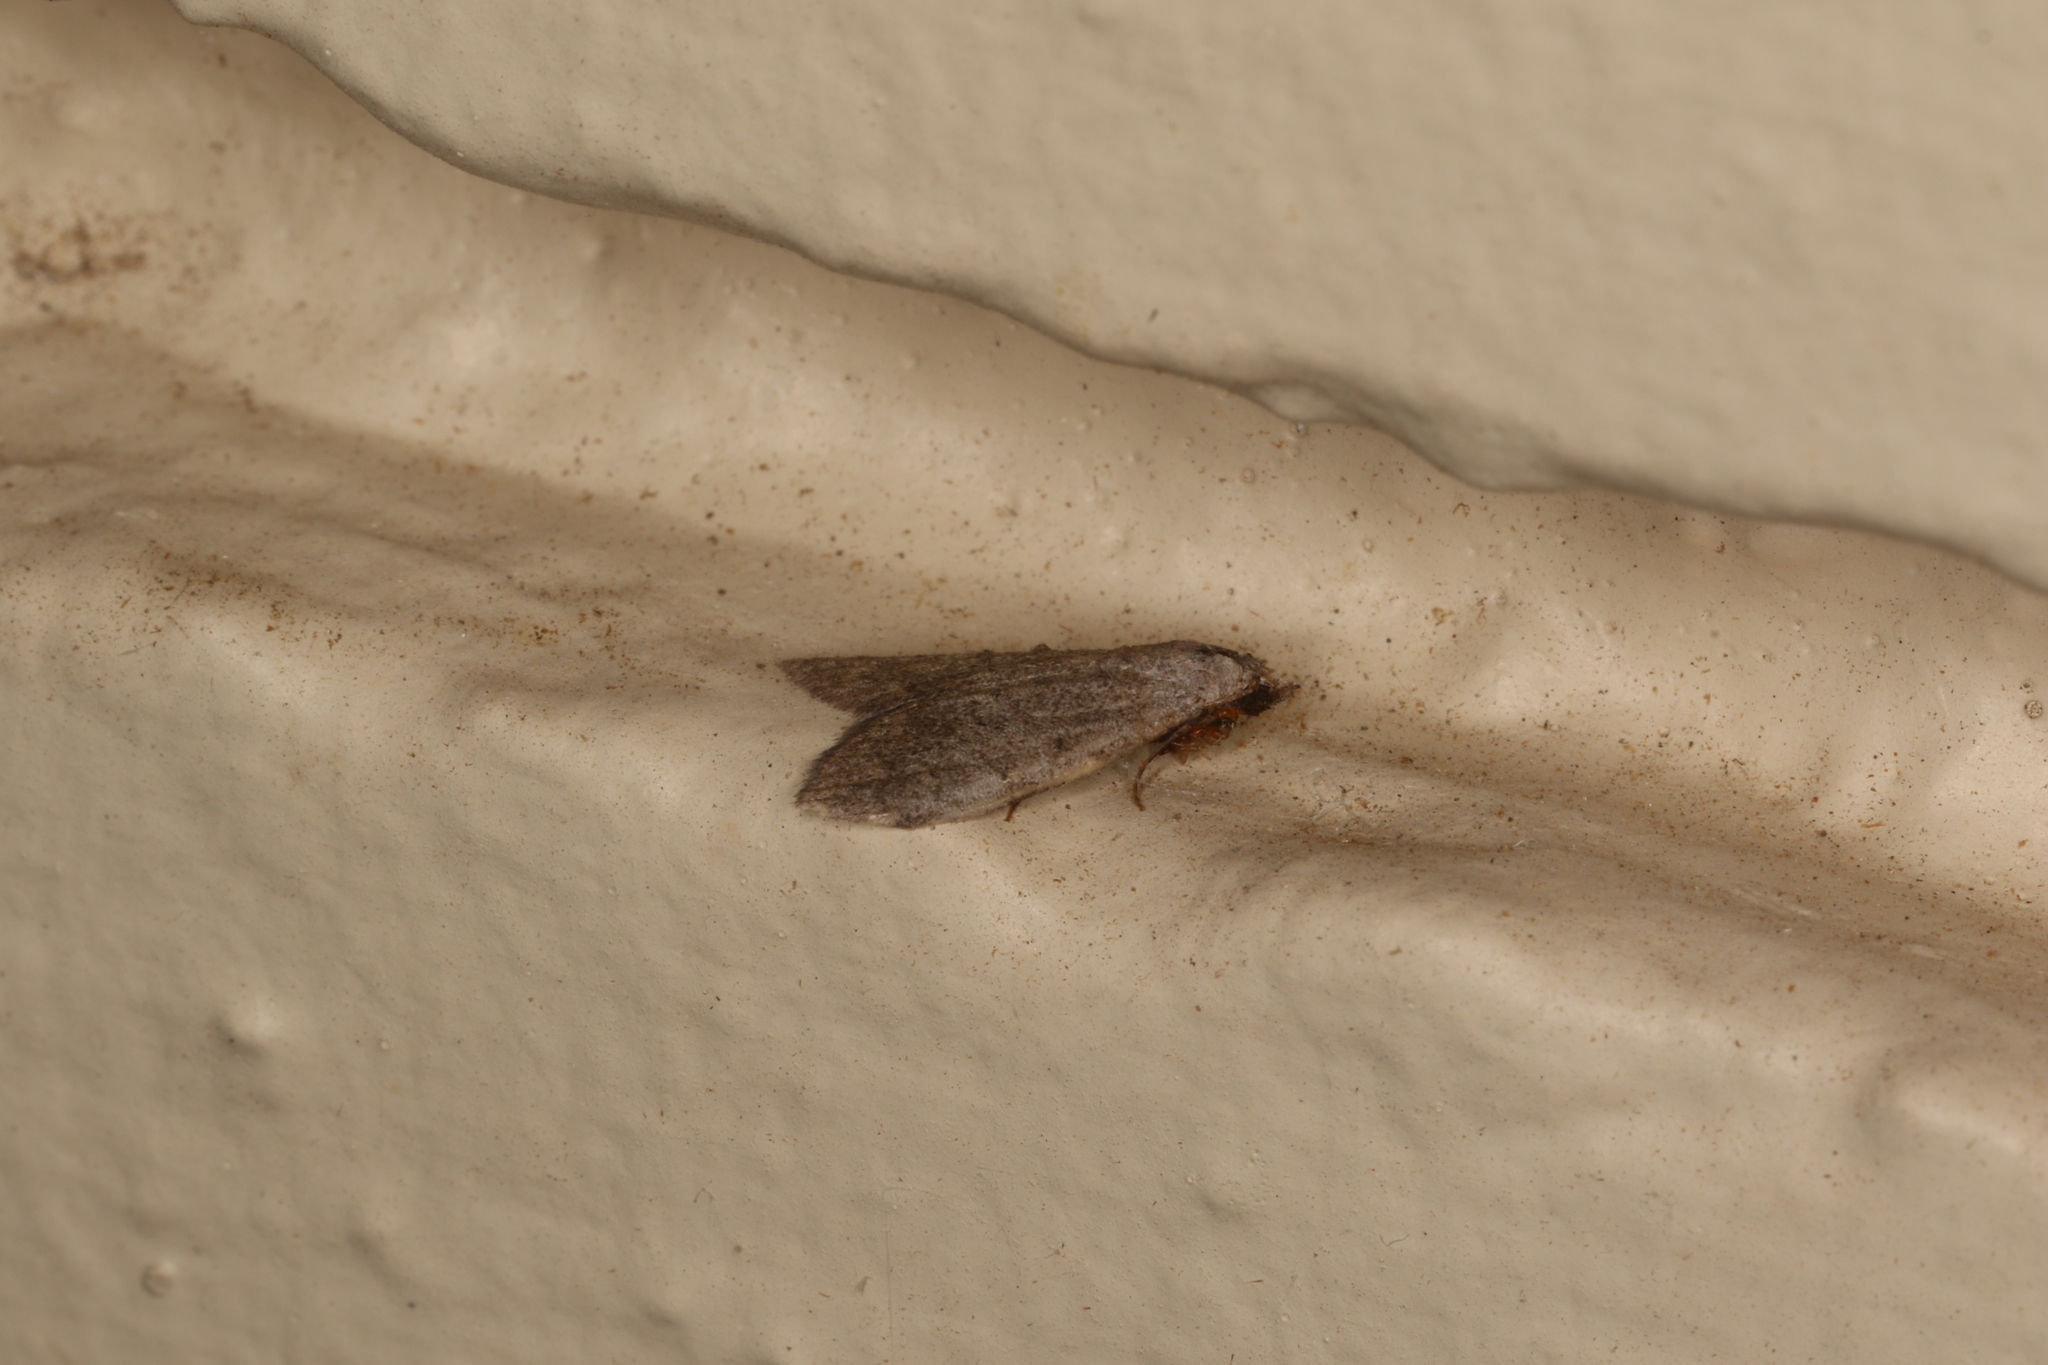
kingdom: Animalia
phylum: Arthropoda
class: Insecta
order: Lepidoptera
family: Nolidae
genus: Nola
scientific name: Nola pleurosema
